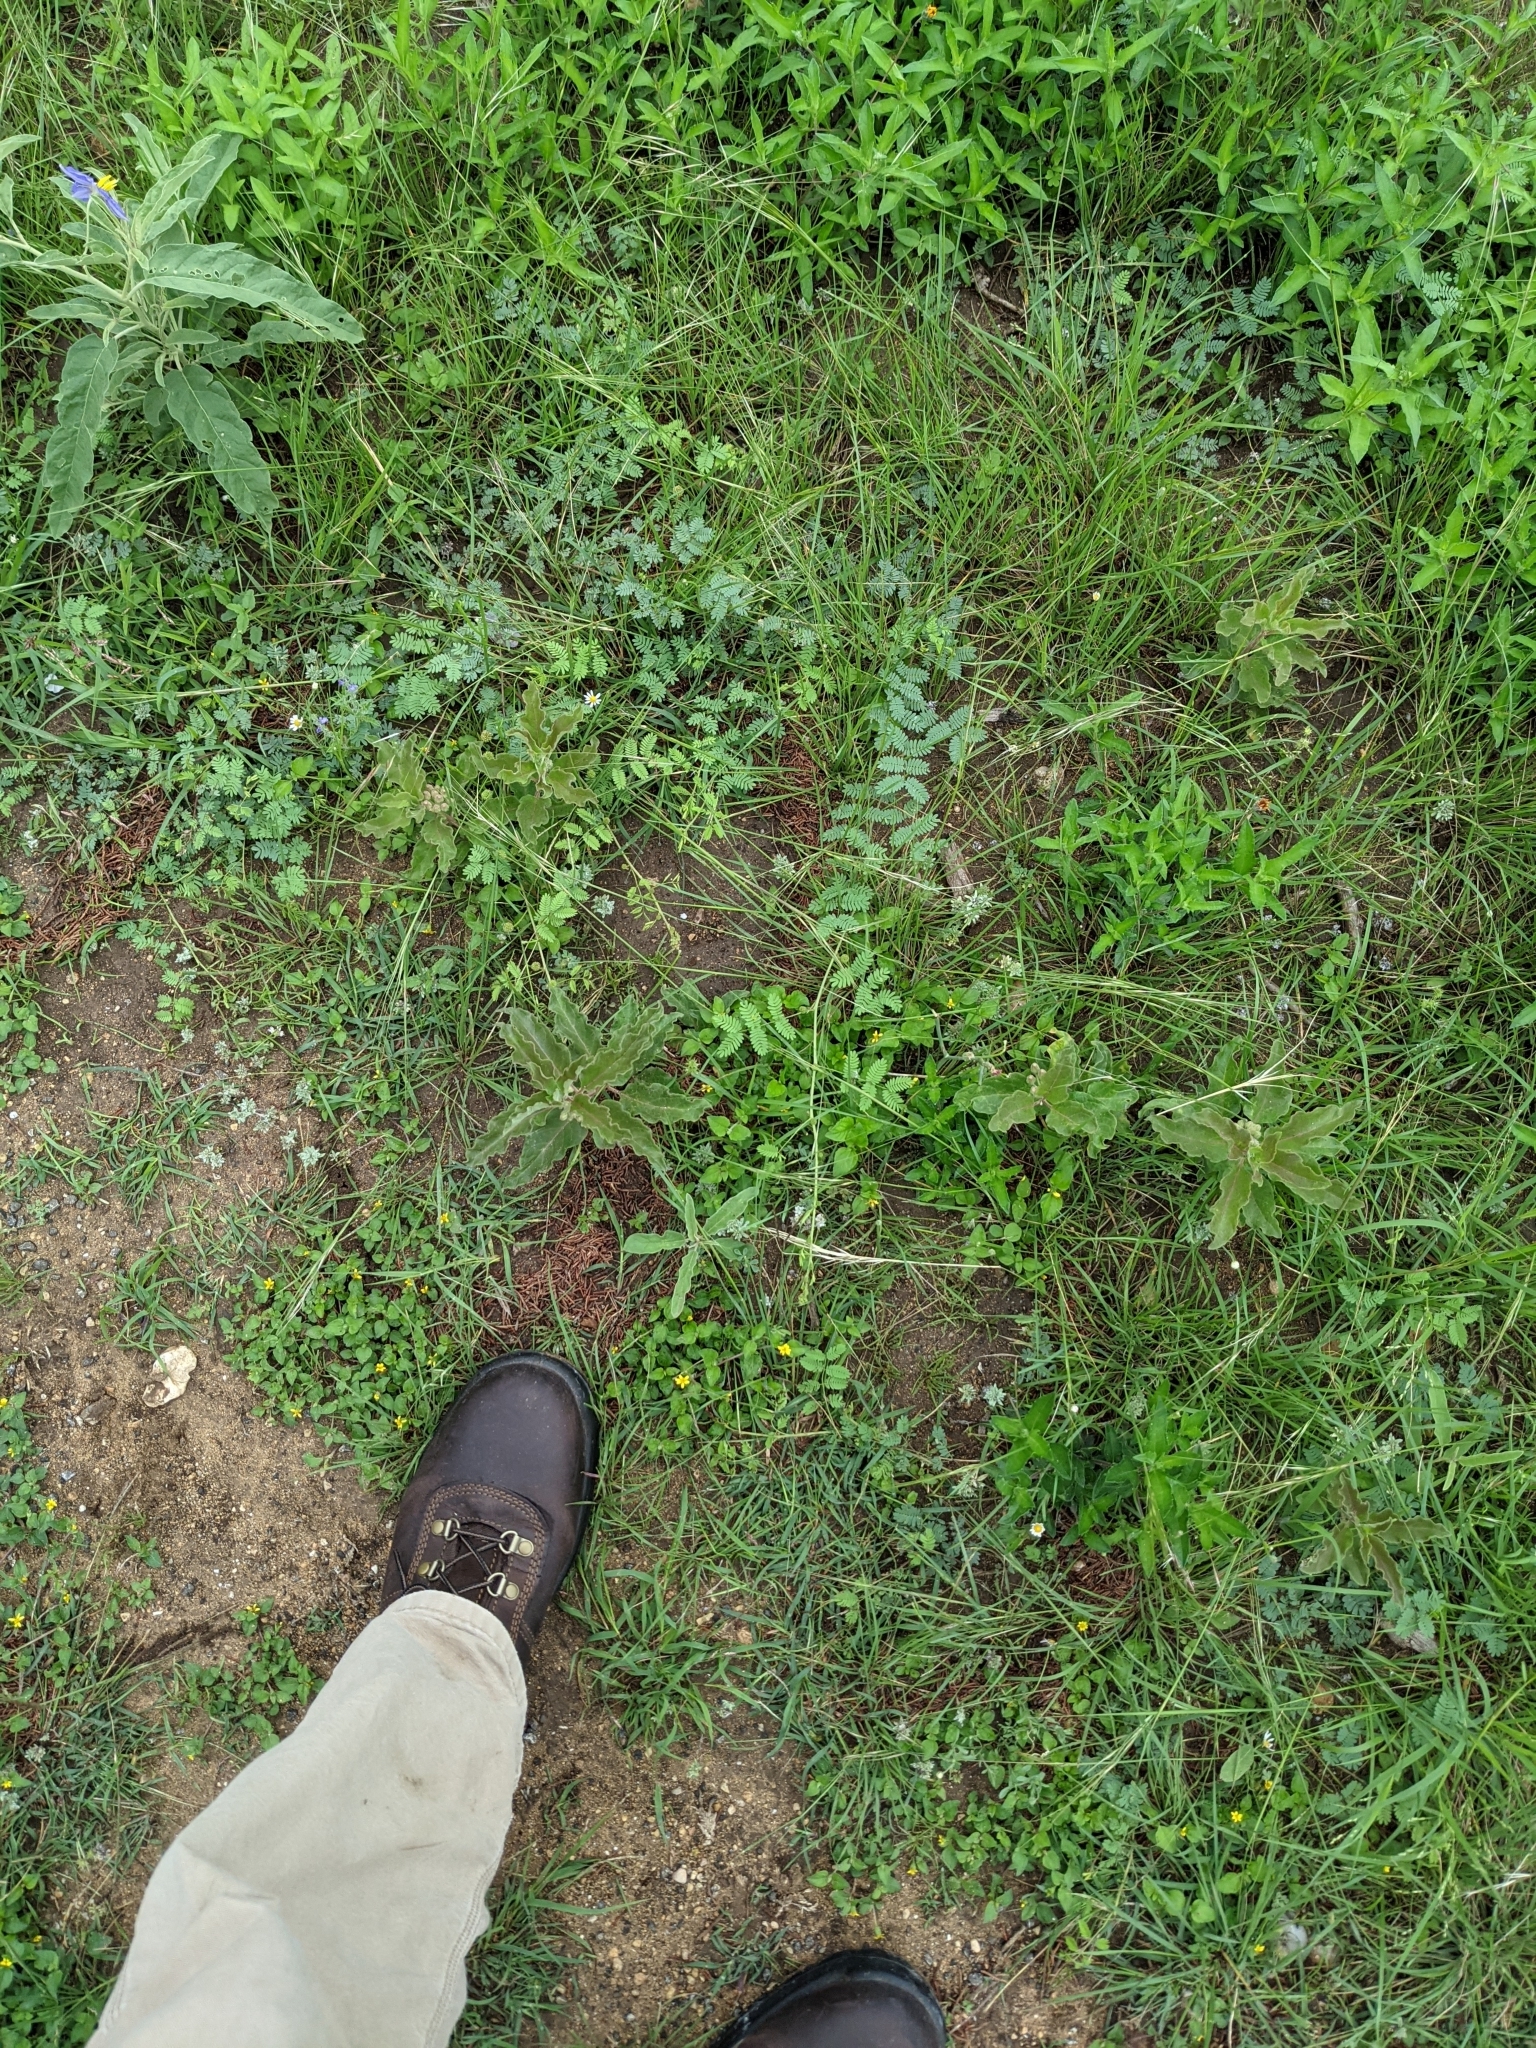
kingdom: Plantae
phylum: Tracheophyta
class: Magnoliopsida
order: Gentianales
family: Apocynaceae
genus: Asclepias
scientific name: Asclepias oenotheroides
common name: Zizotes milkweed
